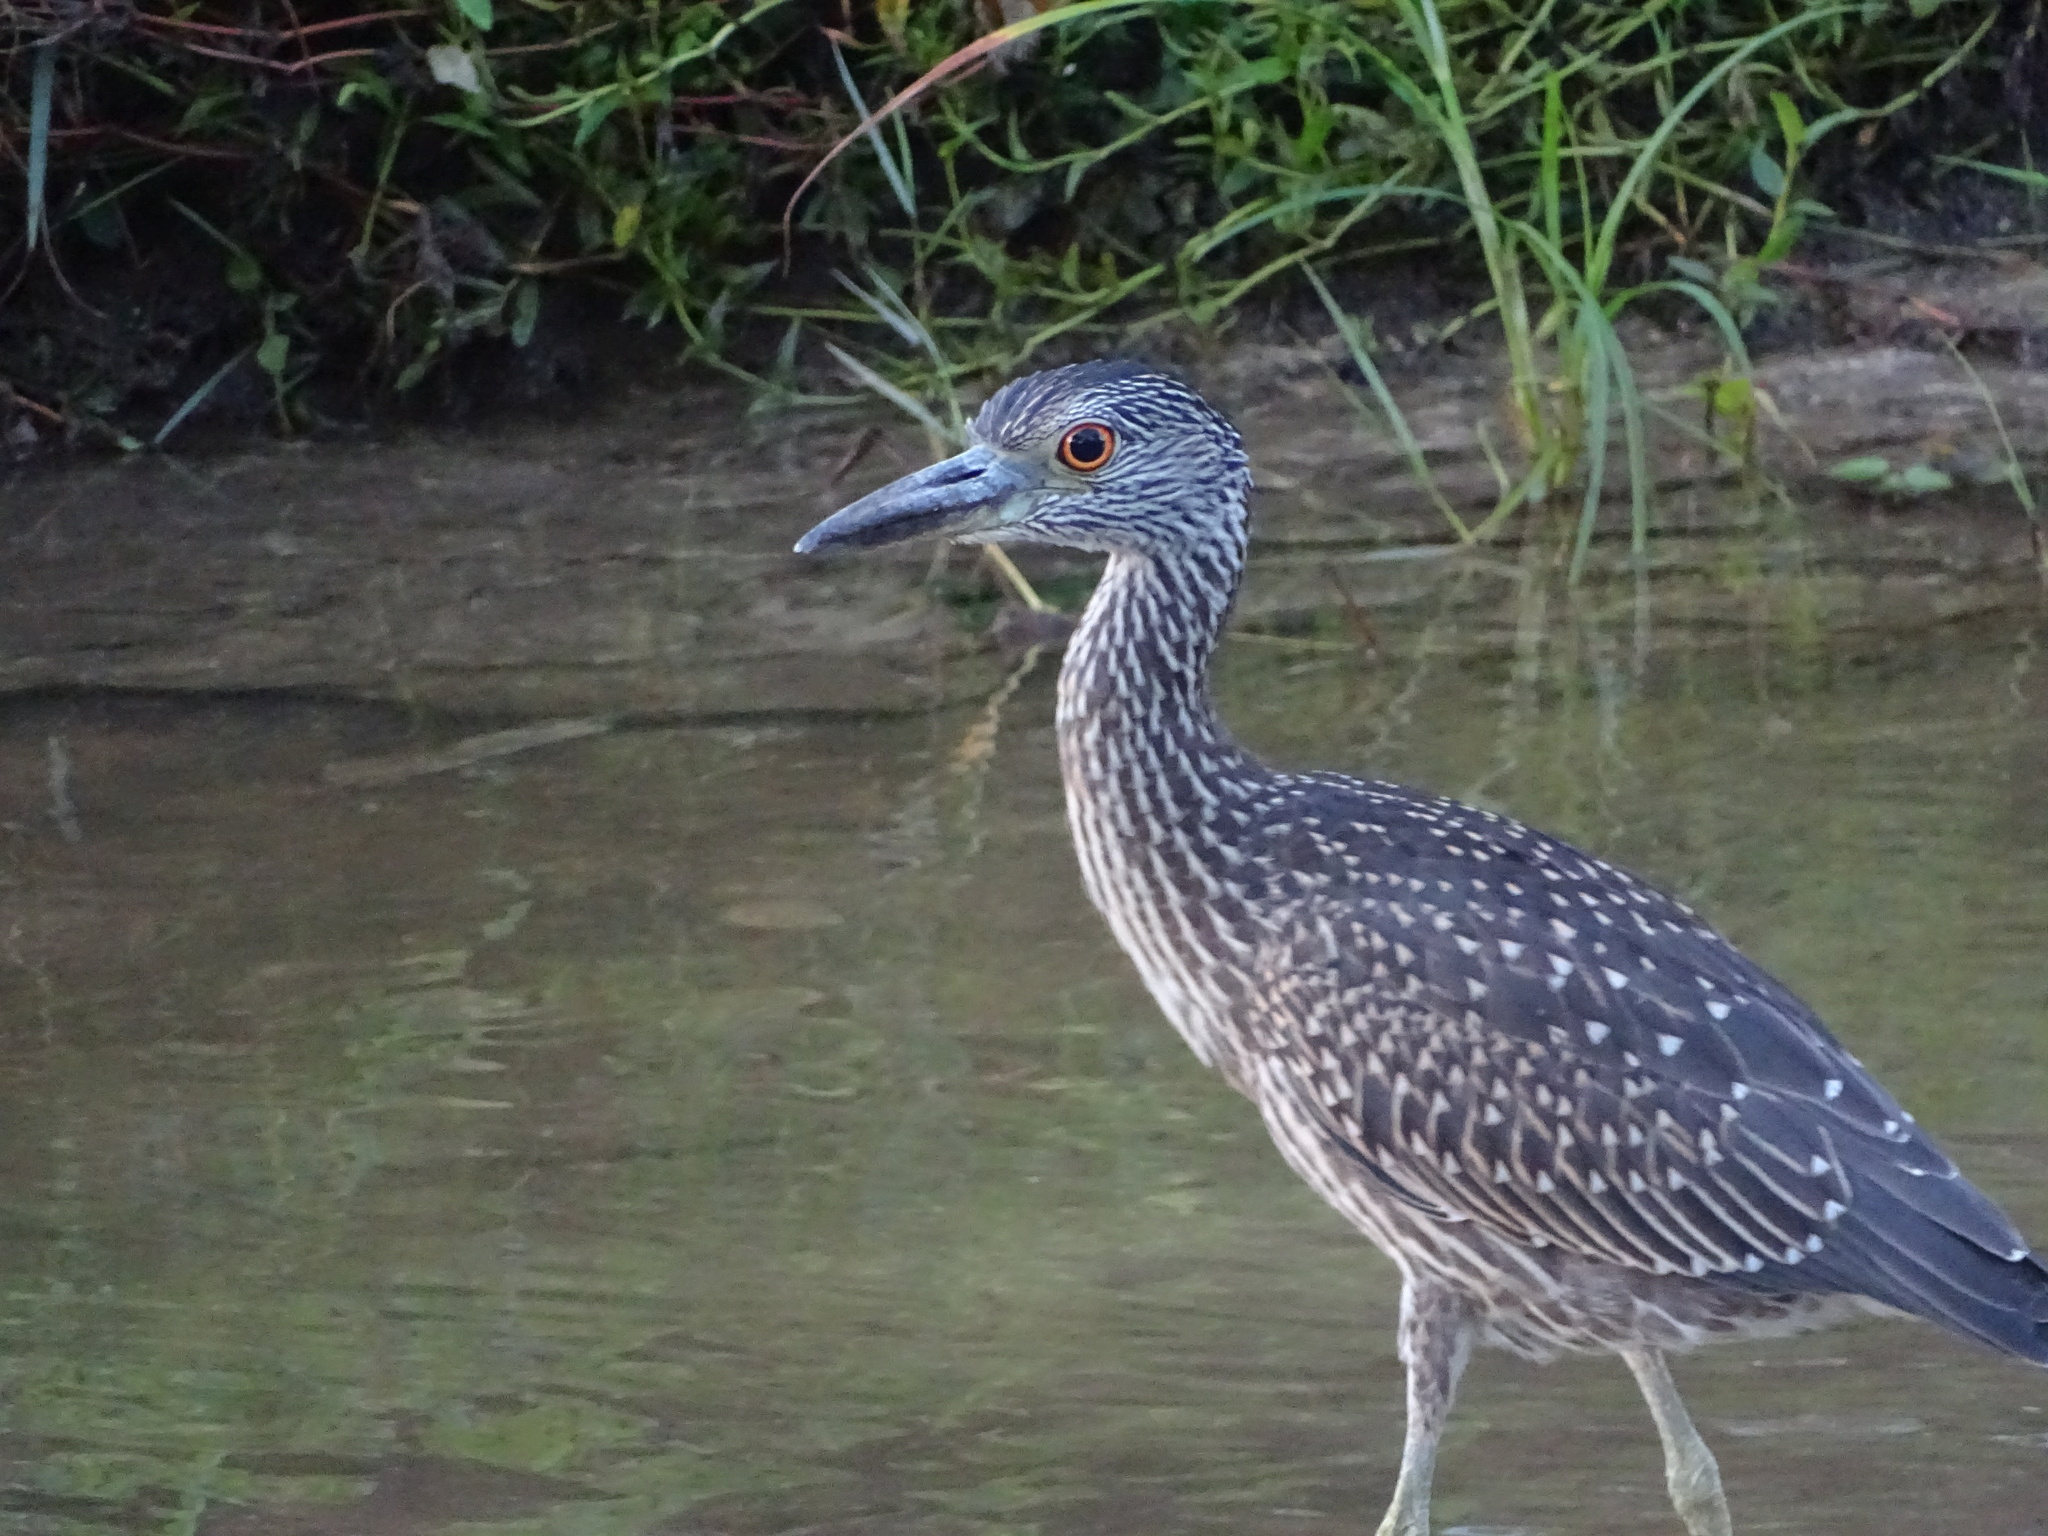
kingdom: Animalia
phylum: Chordata
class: Aves
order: Pelecaniformes
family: Ardeidae
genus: Nyctanassa
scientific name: Nyctanassa violacea
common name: Yellow-crowned night heron
